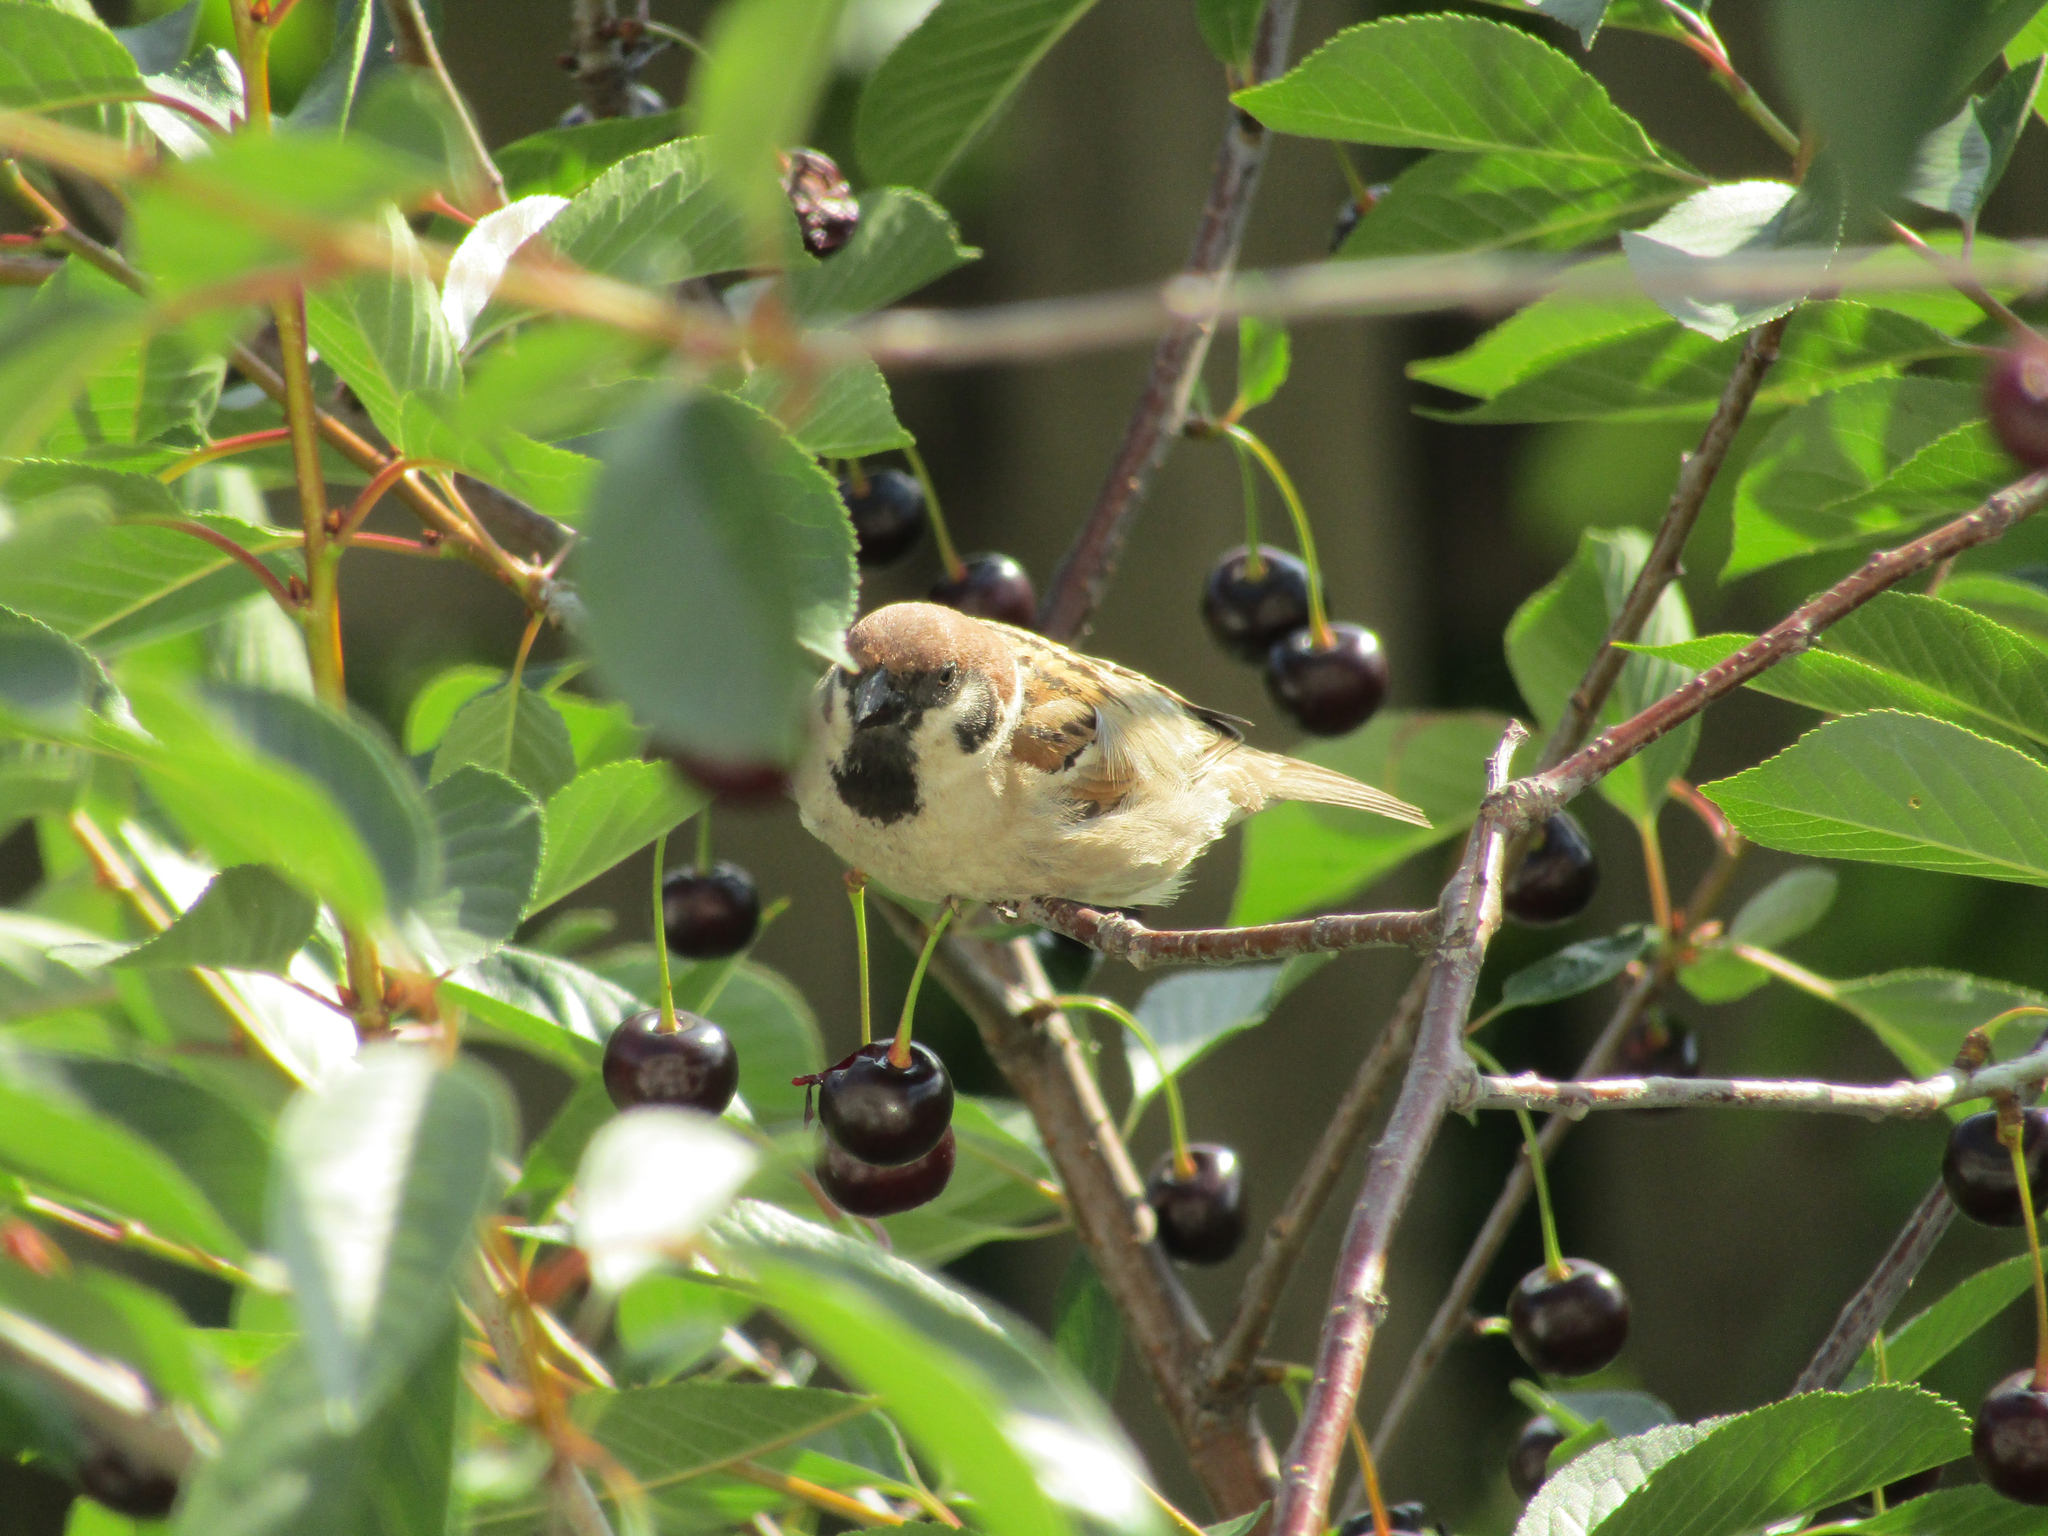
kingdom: Animalia
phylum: Chordata
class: Aves
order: Passeriformes
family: Passeridae
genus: Passer
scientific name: Passer montanus
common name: Eurasian tree sparrow
